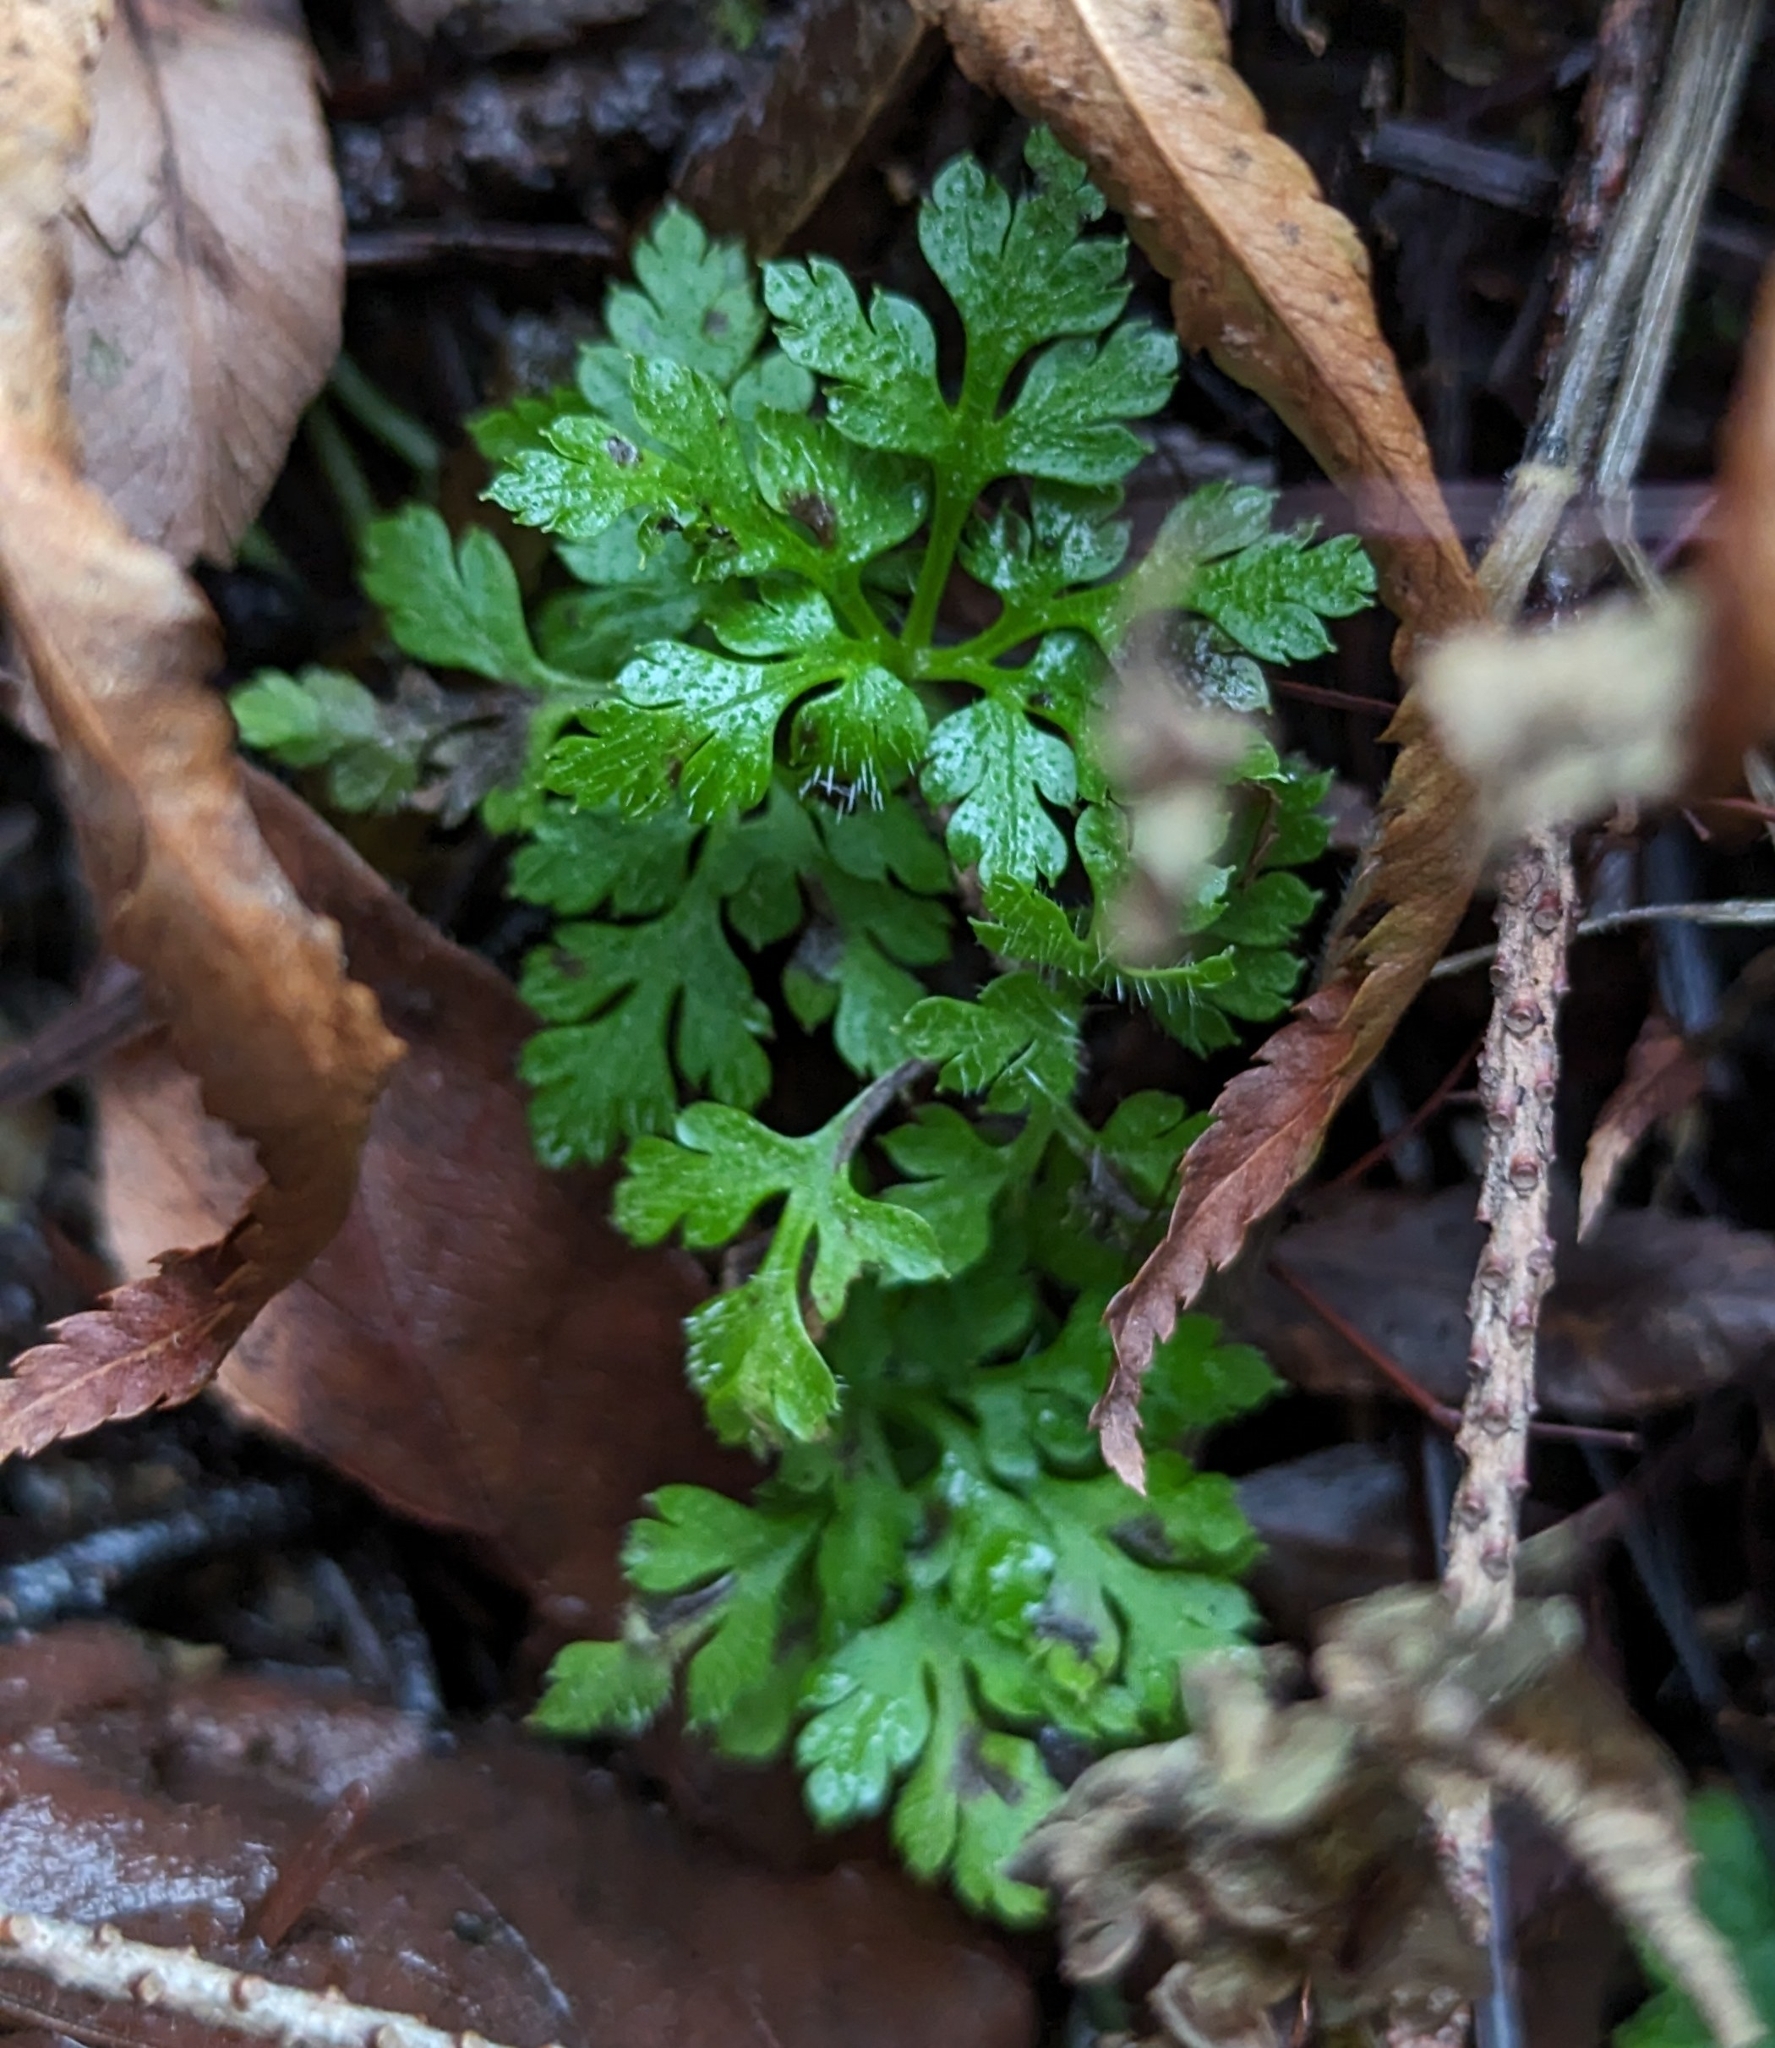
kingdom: Plantae
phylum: Tracheophyta
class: Magnoliopsida
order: Geraniales
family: Geraniaceae
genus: Geranium
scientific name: Geranium robertianum
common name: Herb-robert
